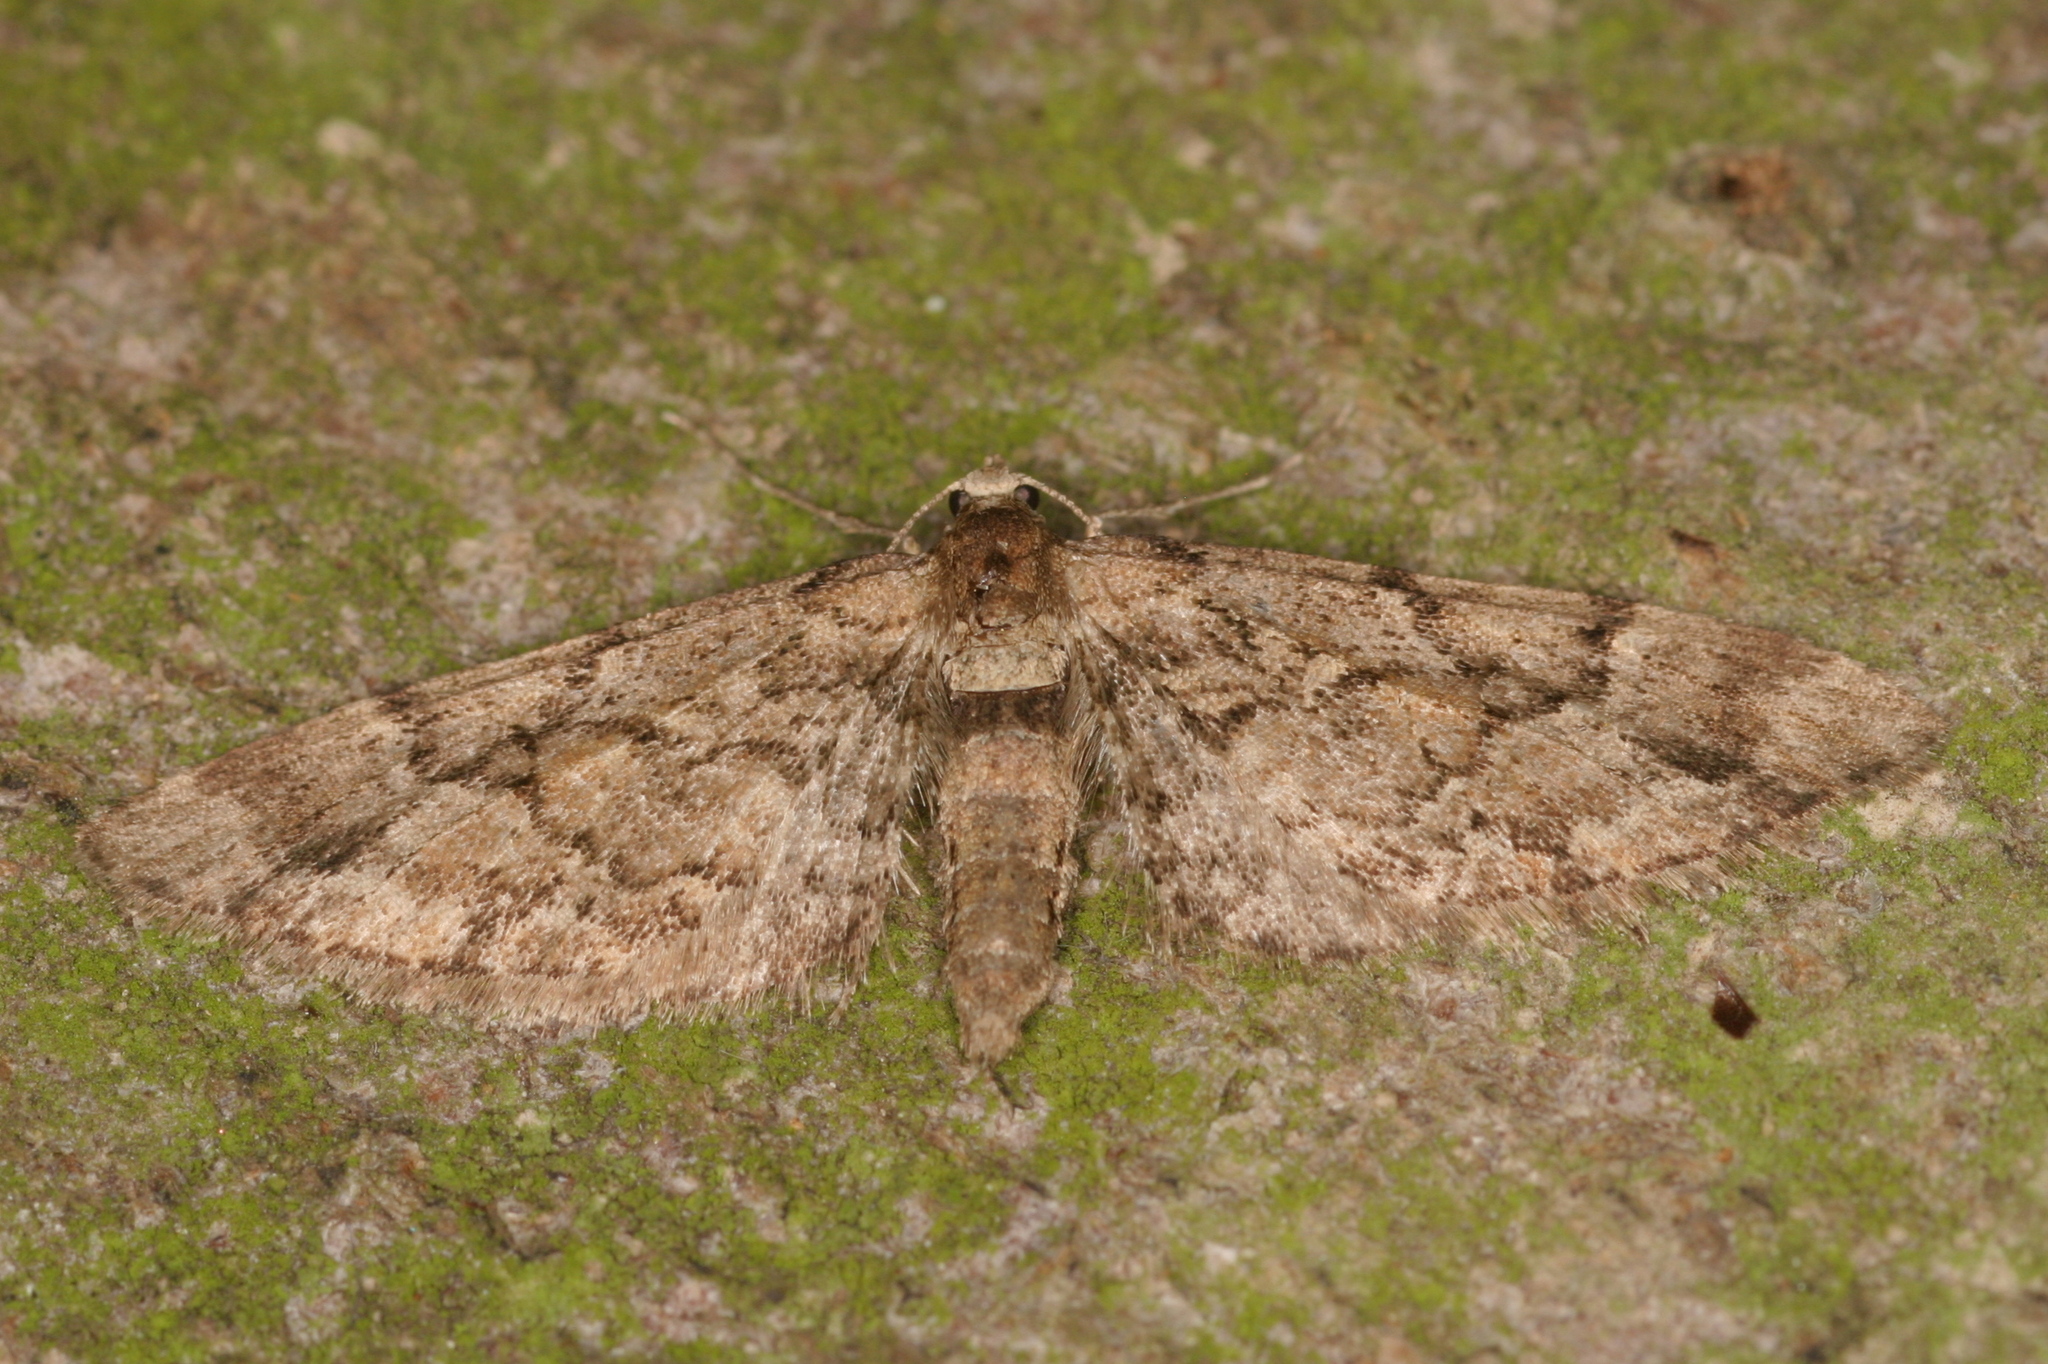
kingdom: Animalia
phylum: Arthropoda
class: Insecta
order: Lepidoptera
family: Geometridae
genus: Eupithecia
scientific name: Eupithecia lanceata
